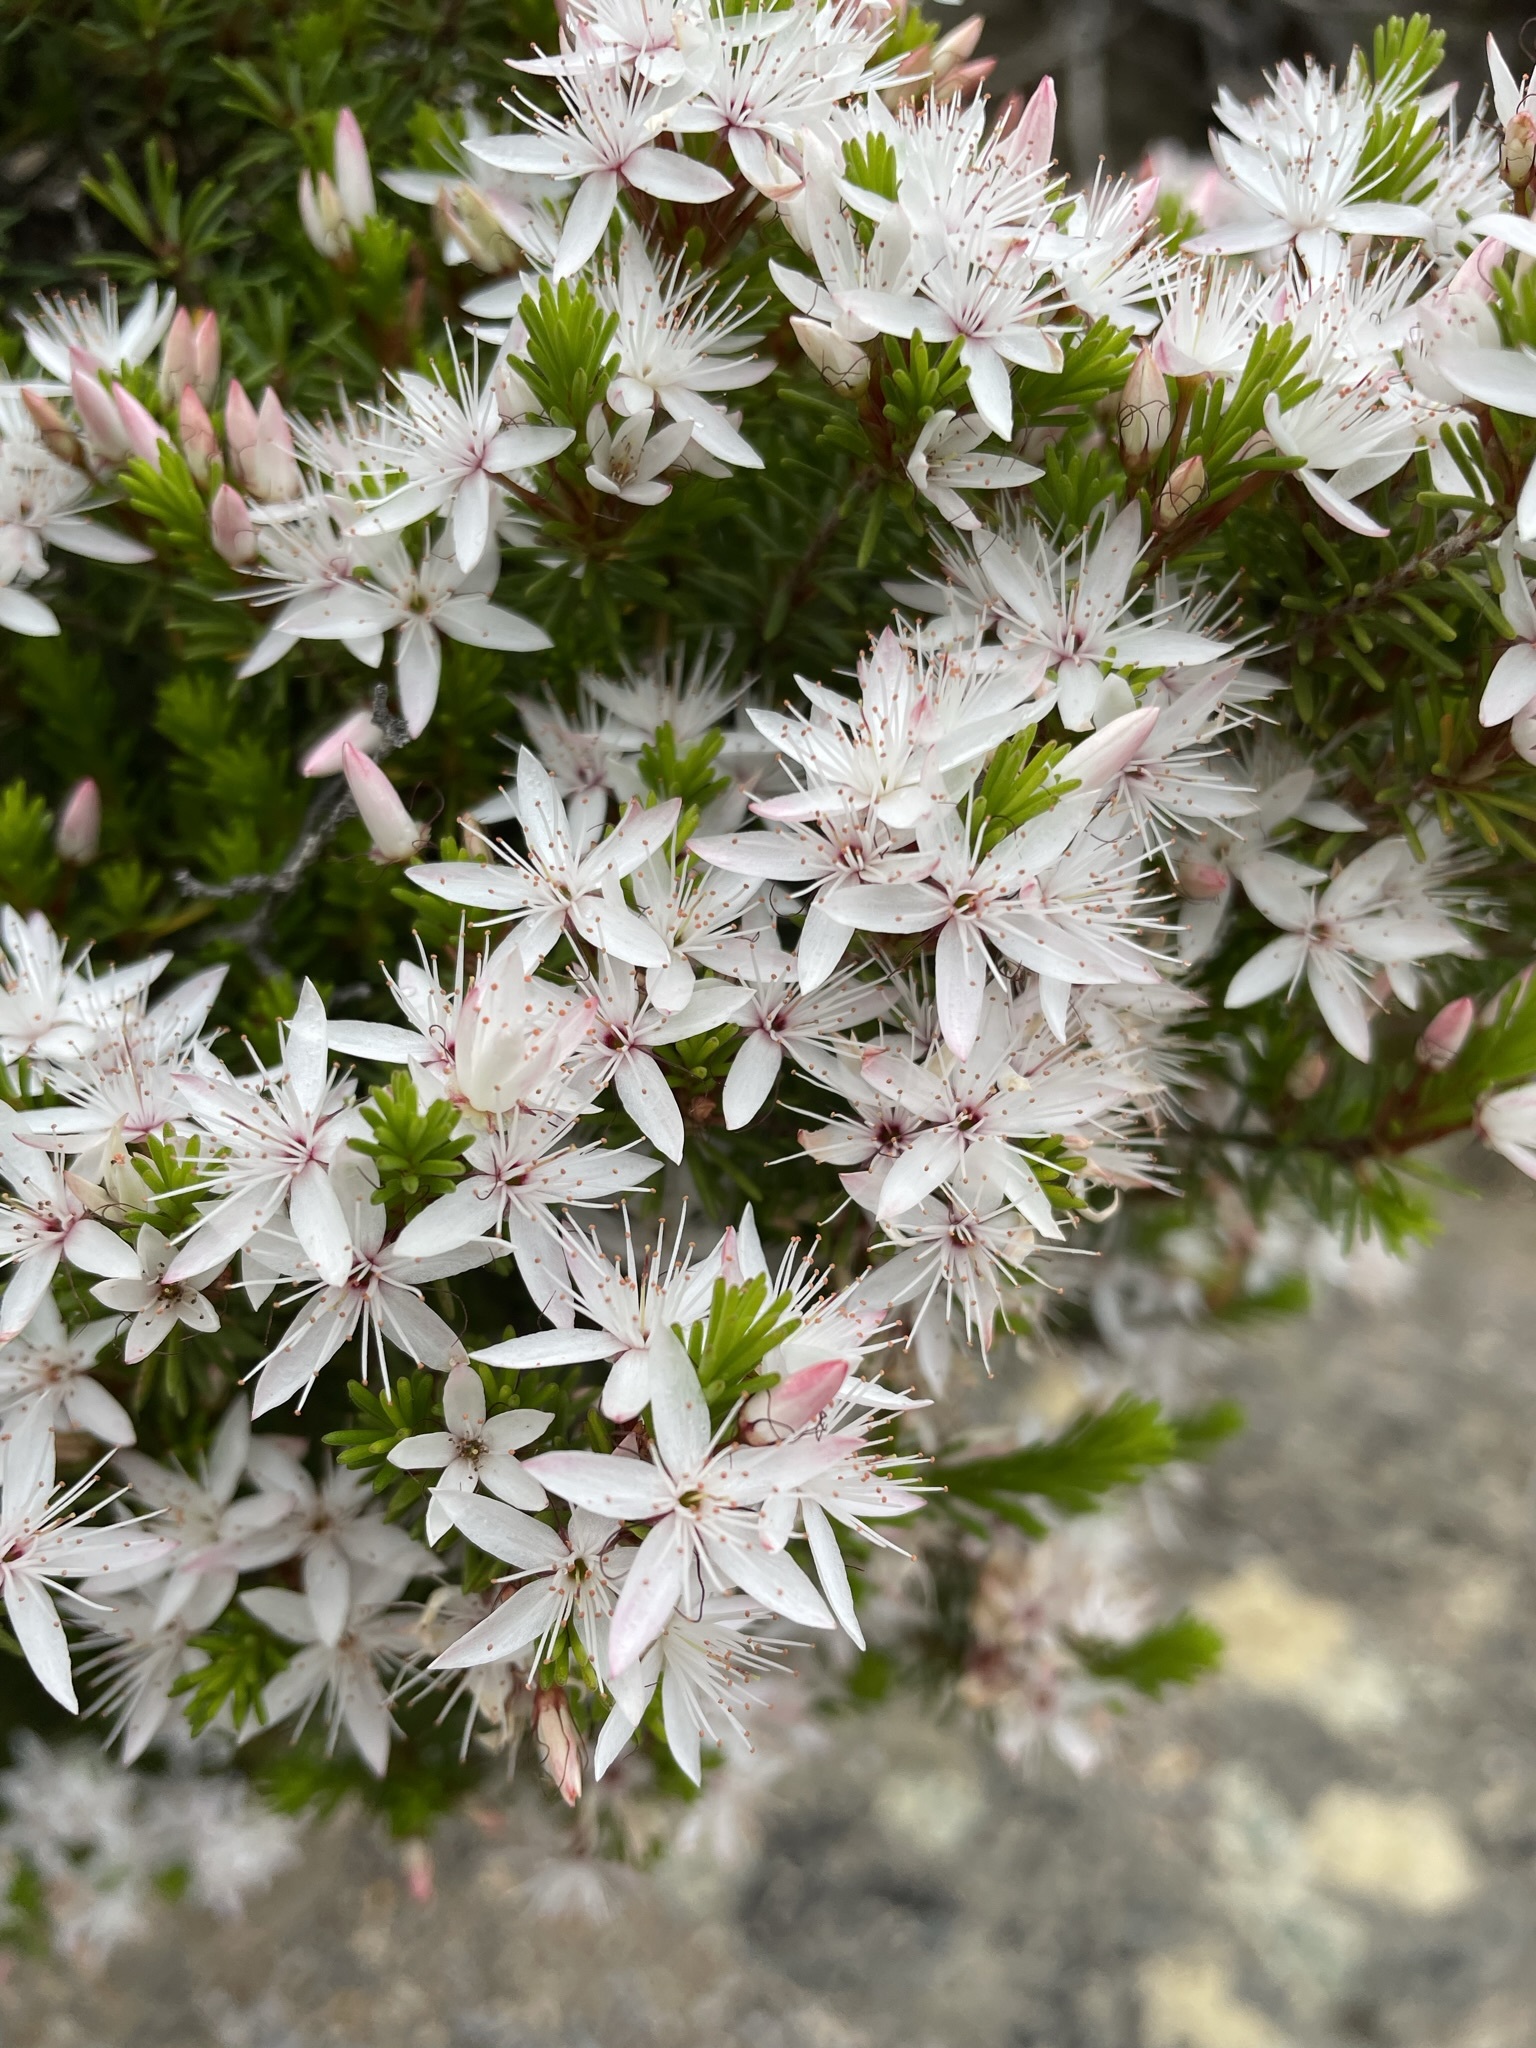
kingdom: Plantae
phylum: Tracheophyta
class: Magnoliopsida
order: Myrtales
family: Myrtaceae
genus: Calytrix
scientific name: Calytrix tetragona
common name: Common fringe myrtle
